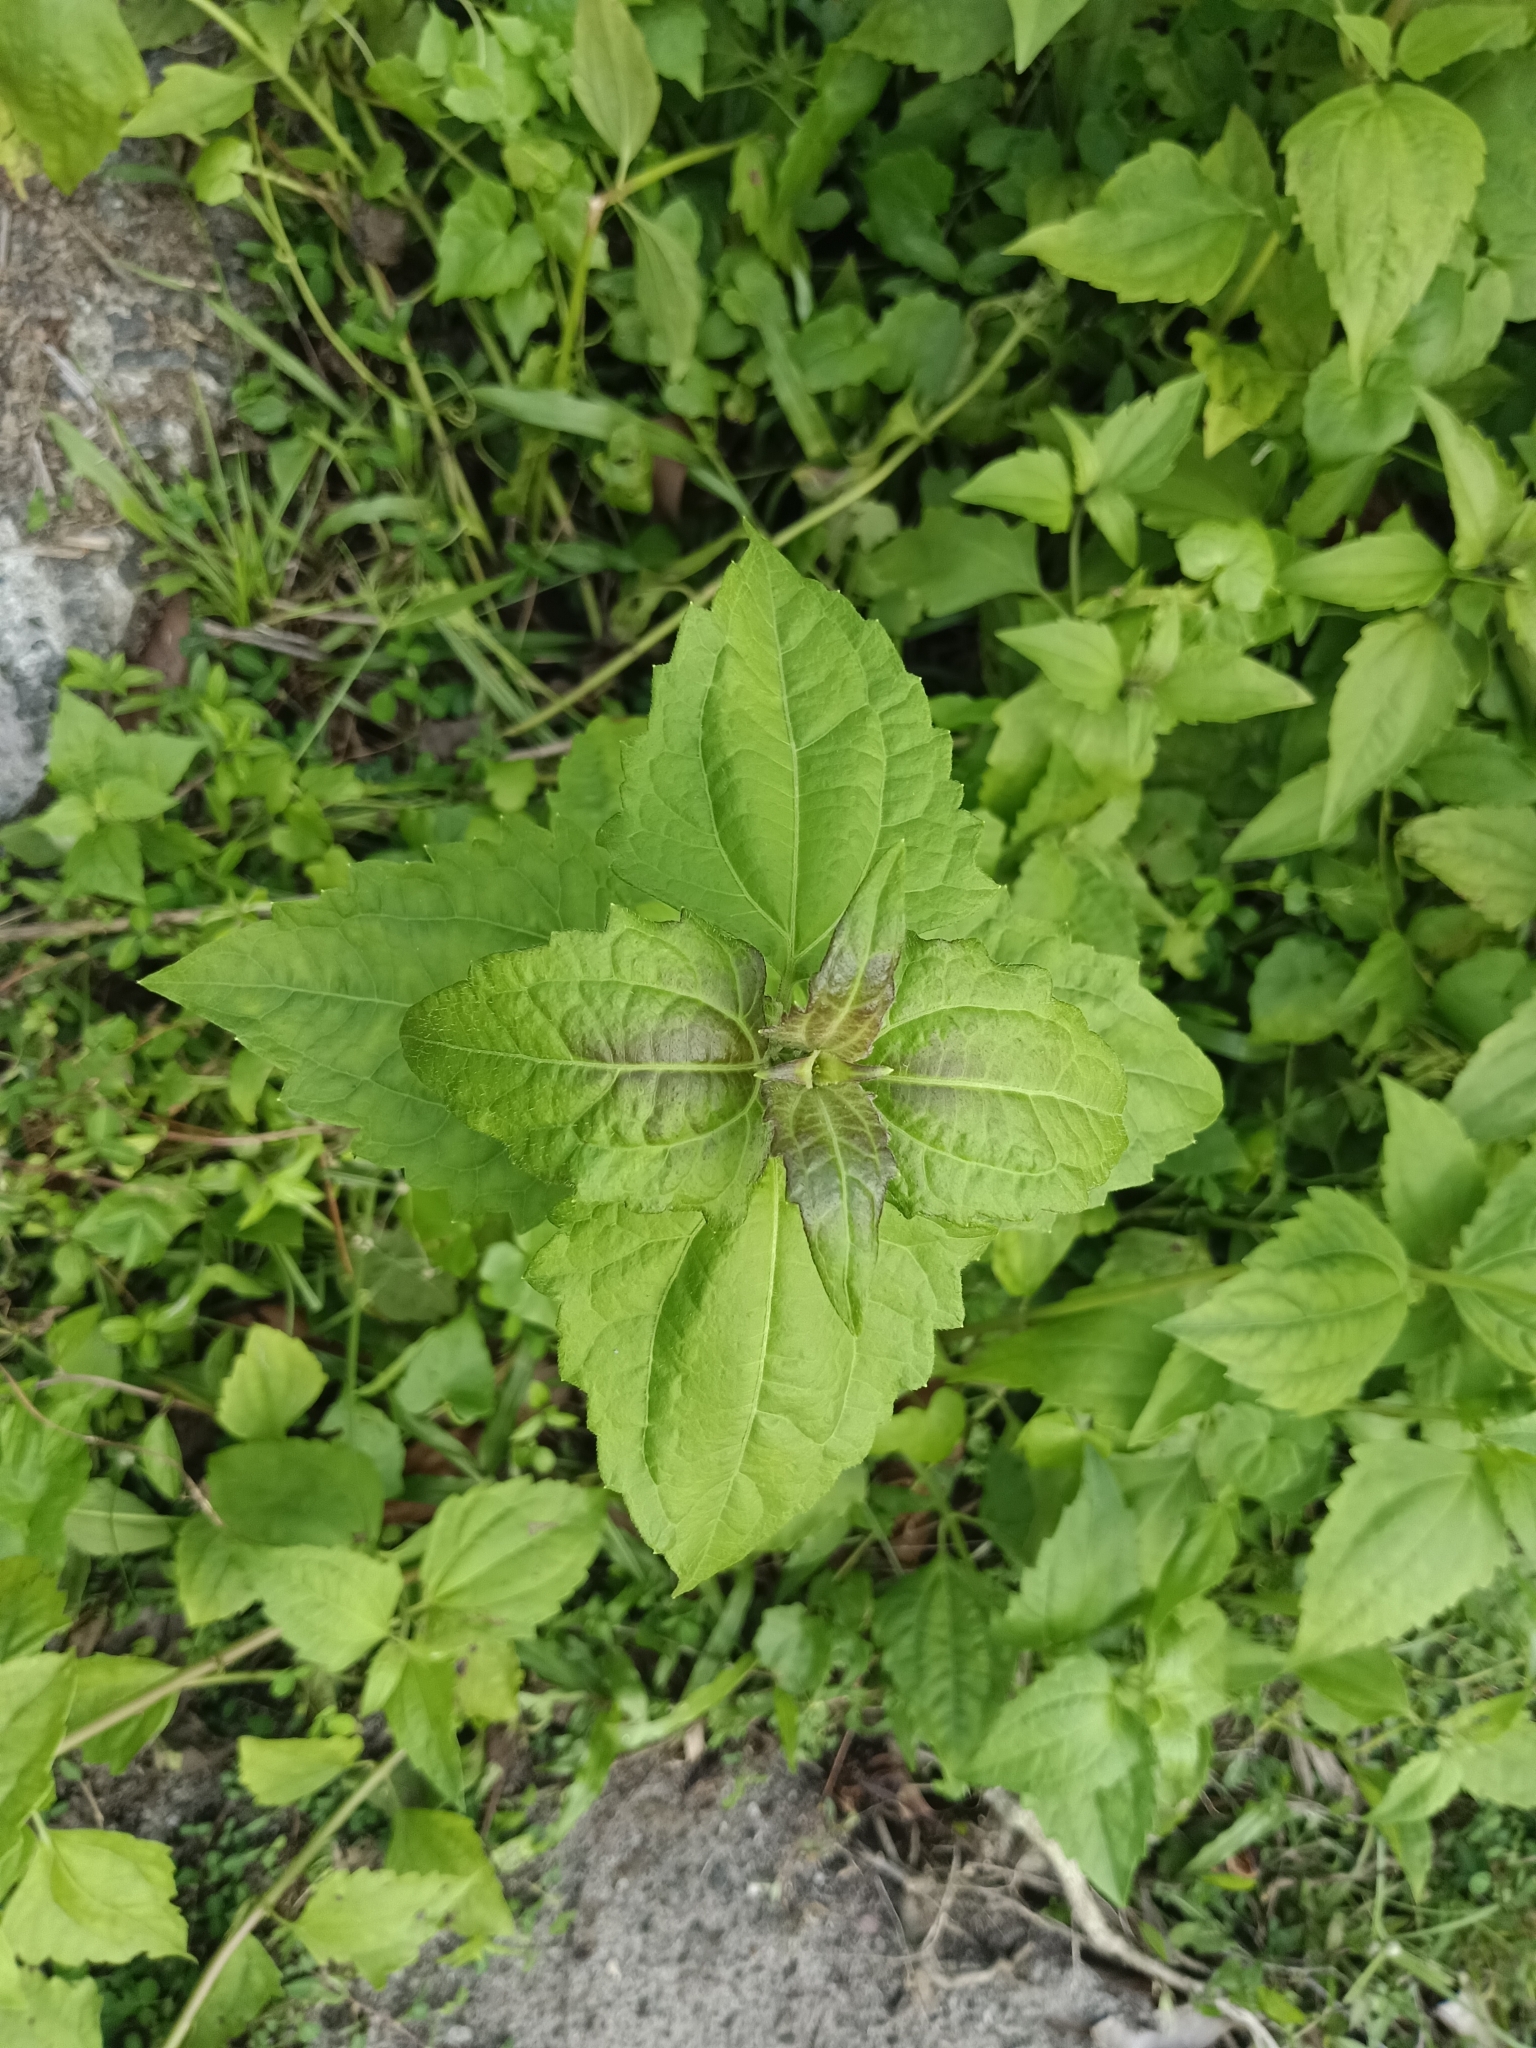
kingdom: Plantae
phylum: Tracheophyta
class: Magnoliopsida
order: Asterales
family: Asteraceae
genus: Chromolaena
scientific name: Chromolaena odorata
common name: Siamweed
